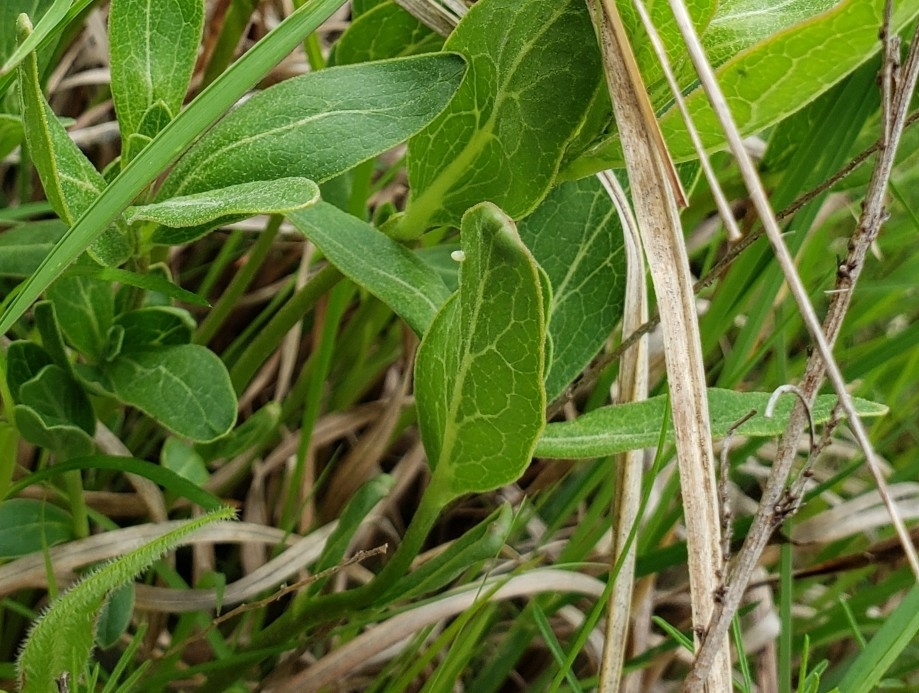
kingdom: Animalia
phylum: Arthropoda
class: Insecta
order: Lepidoptera
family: Nymphalidae
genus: Danaus
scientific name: Danaus plexippus
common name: Monarch
